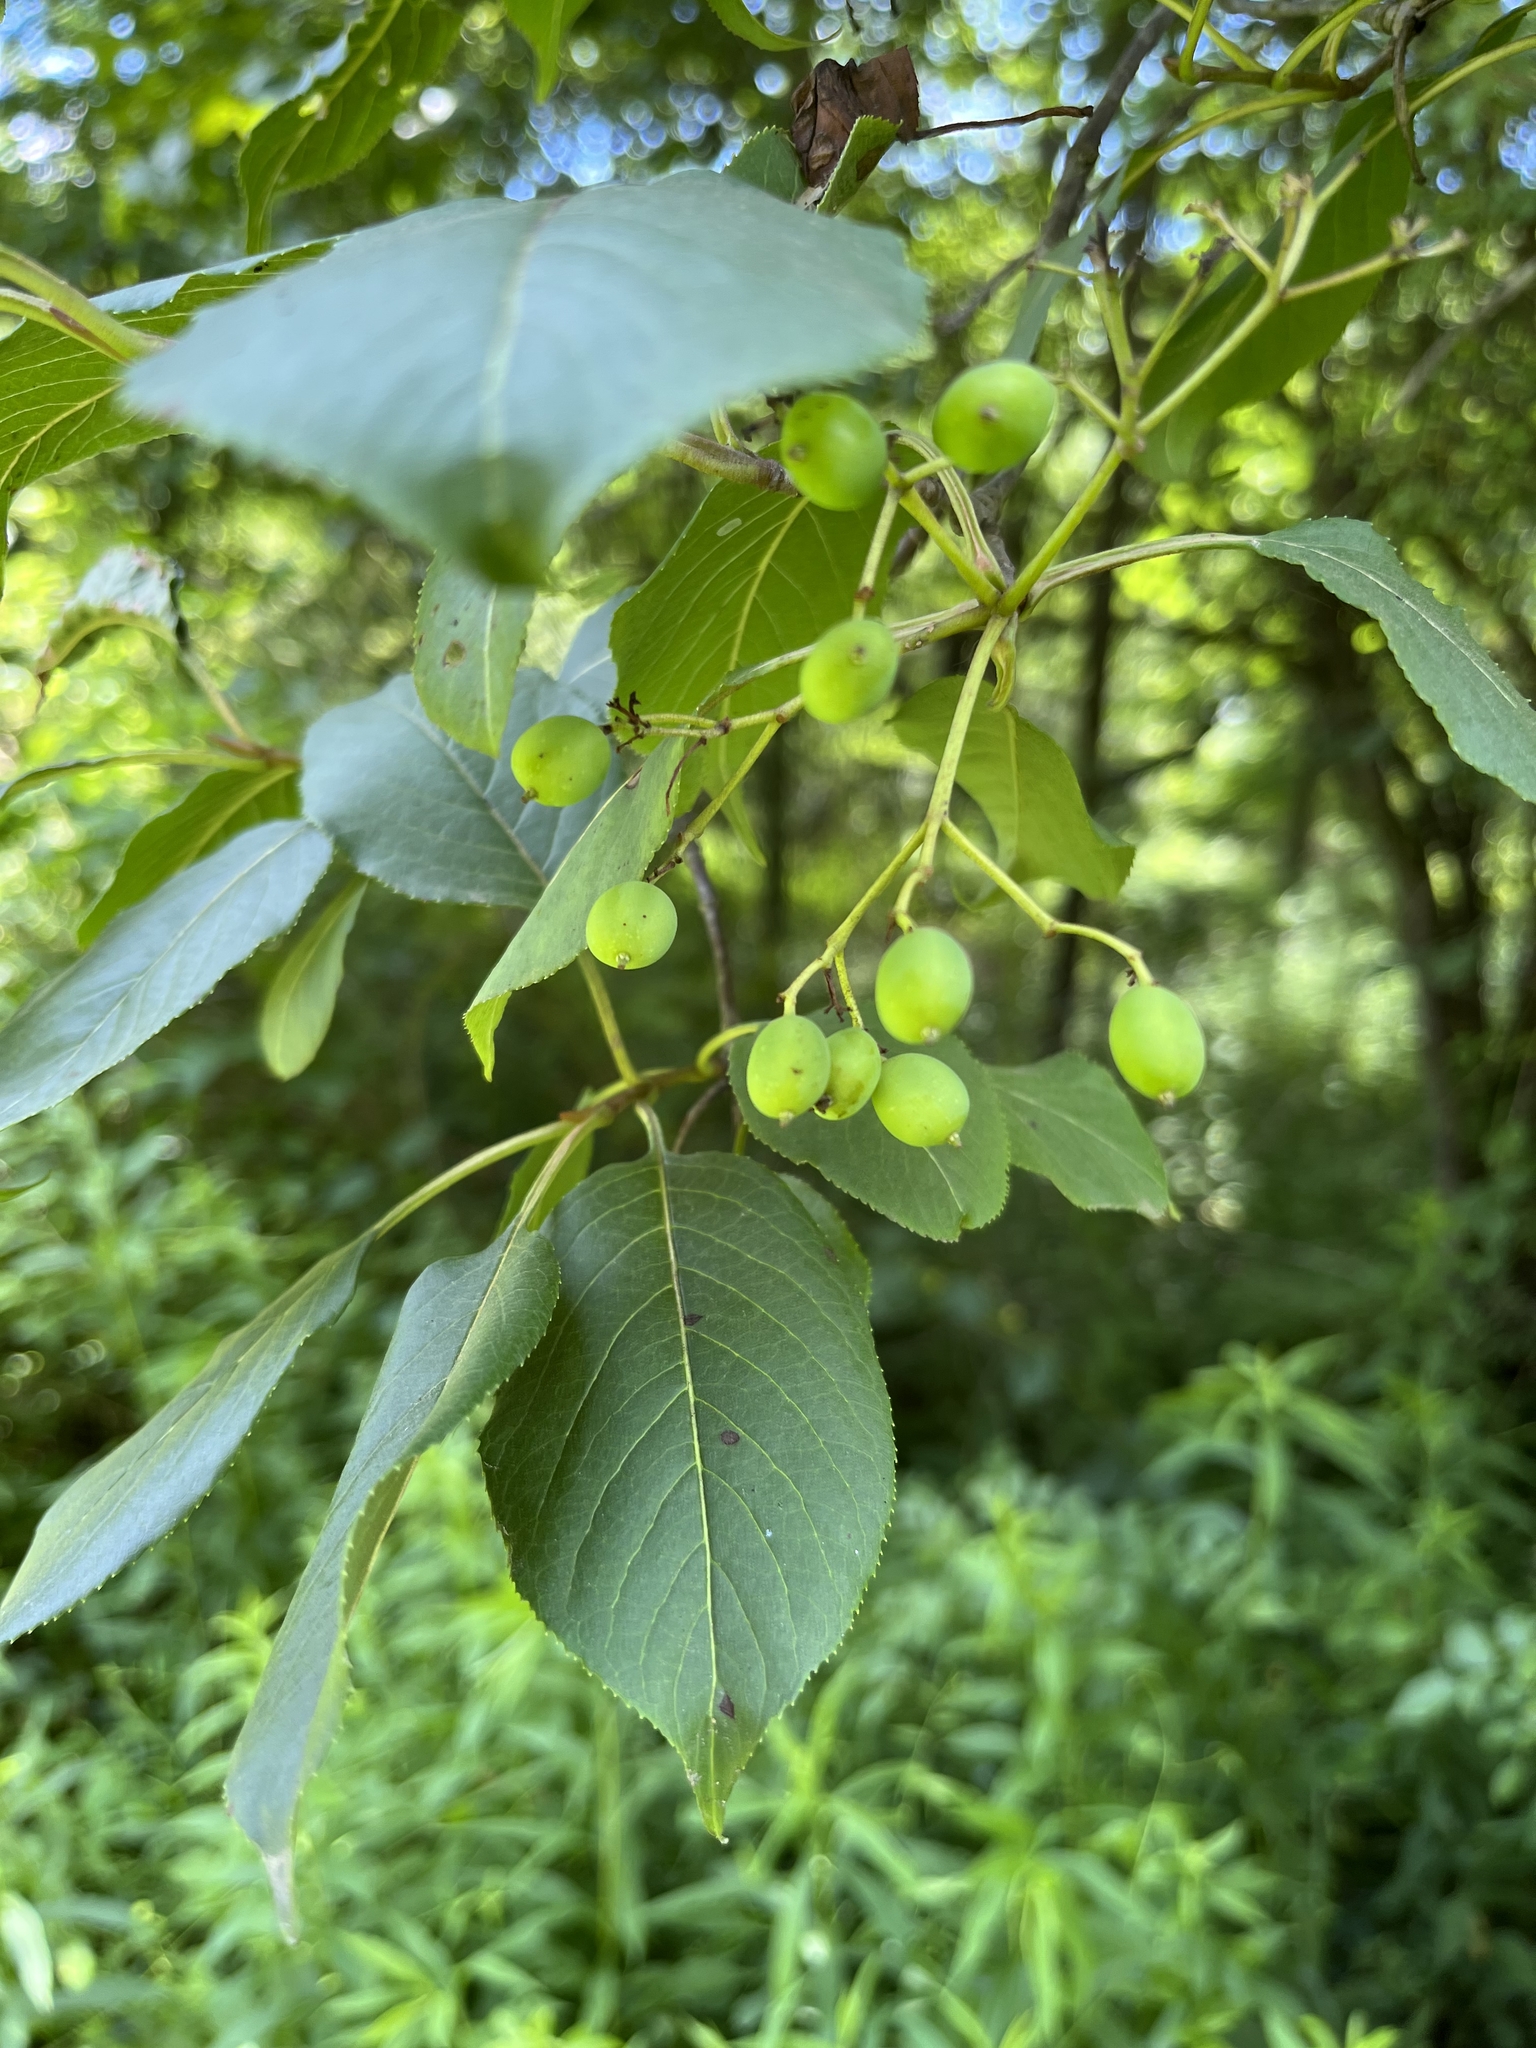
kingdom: Plantae
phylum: Tracheophyta
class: Magnoliopsida
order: Dipsacales
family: Viburnaceae
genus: Viburnum
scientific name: Viburnum lentago
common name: Black haw
